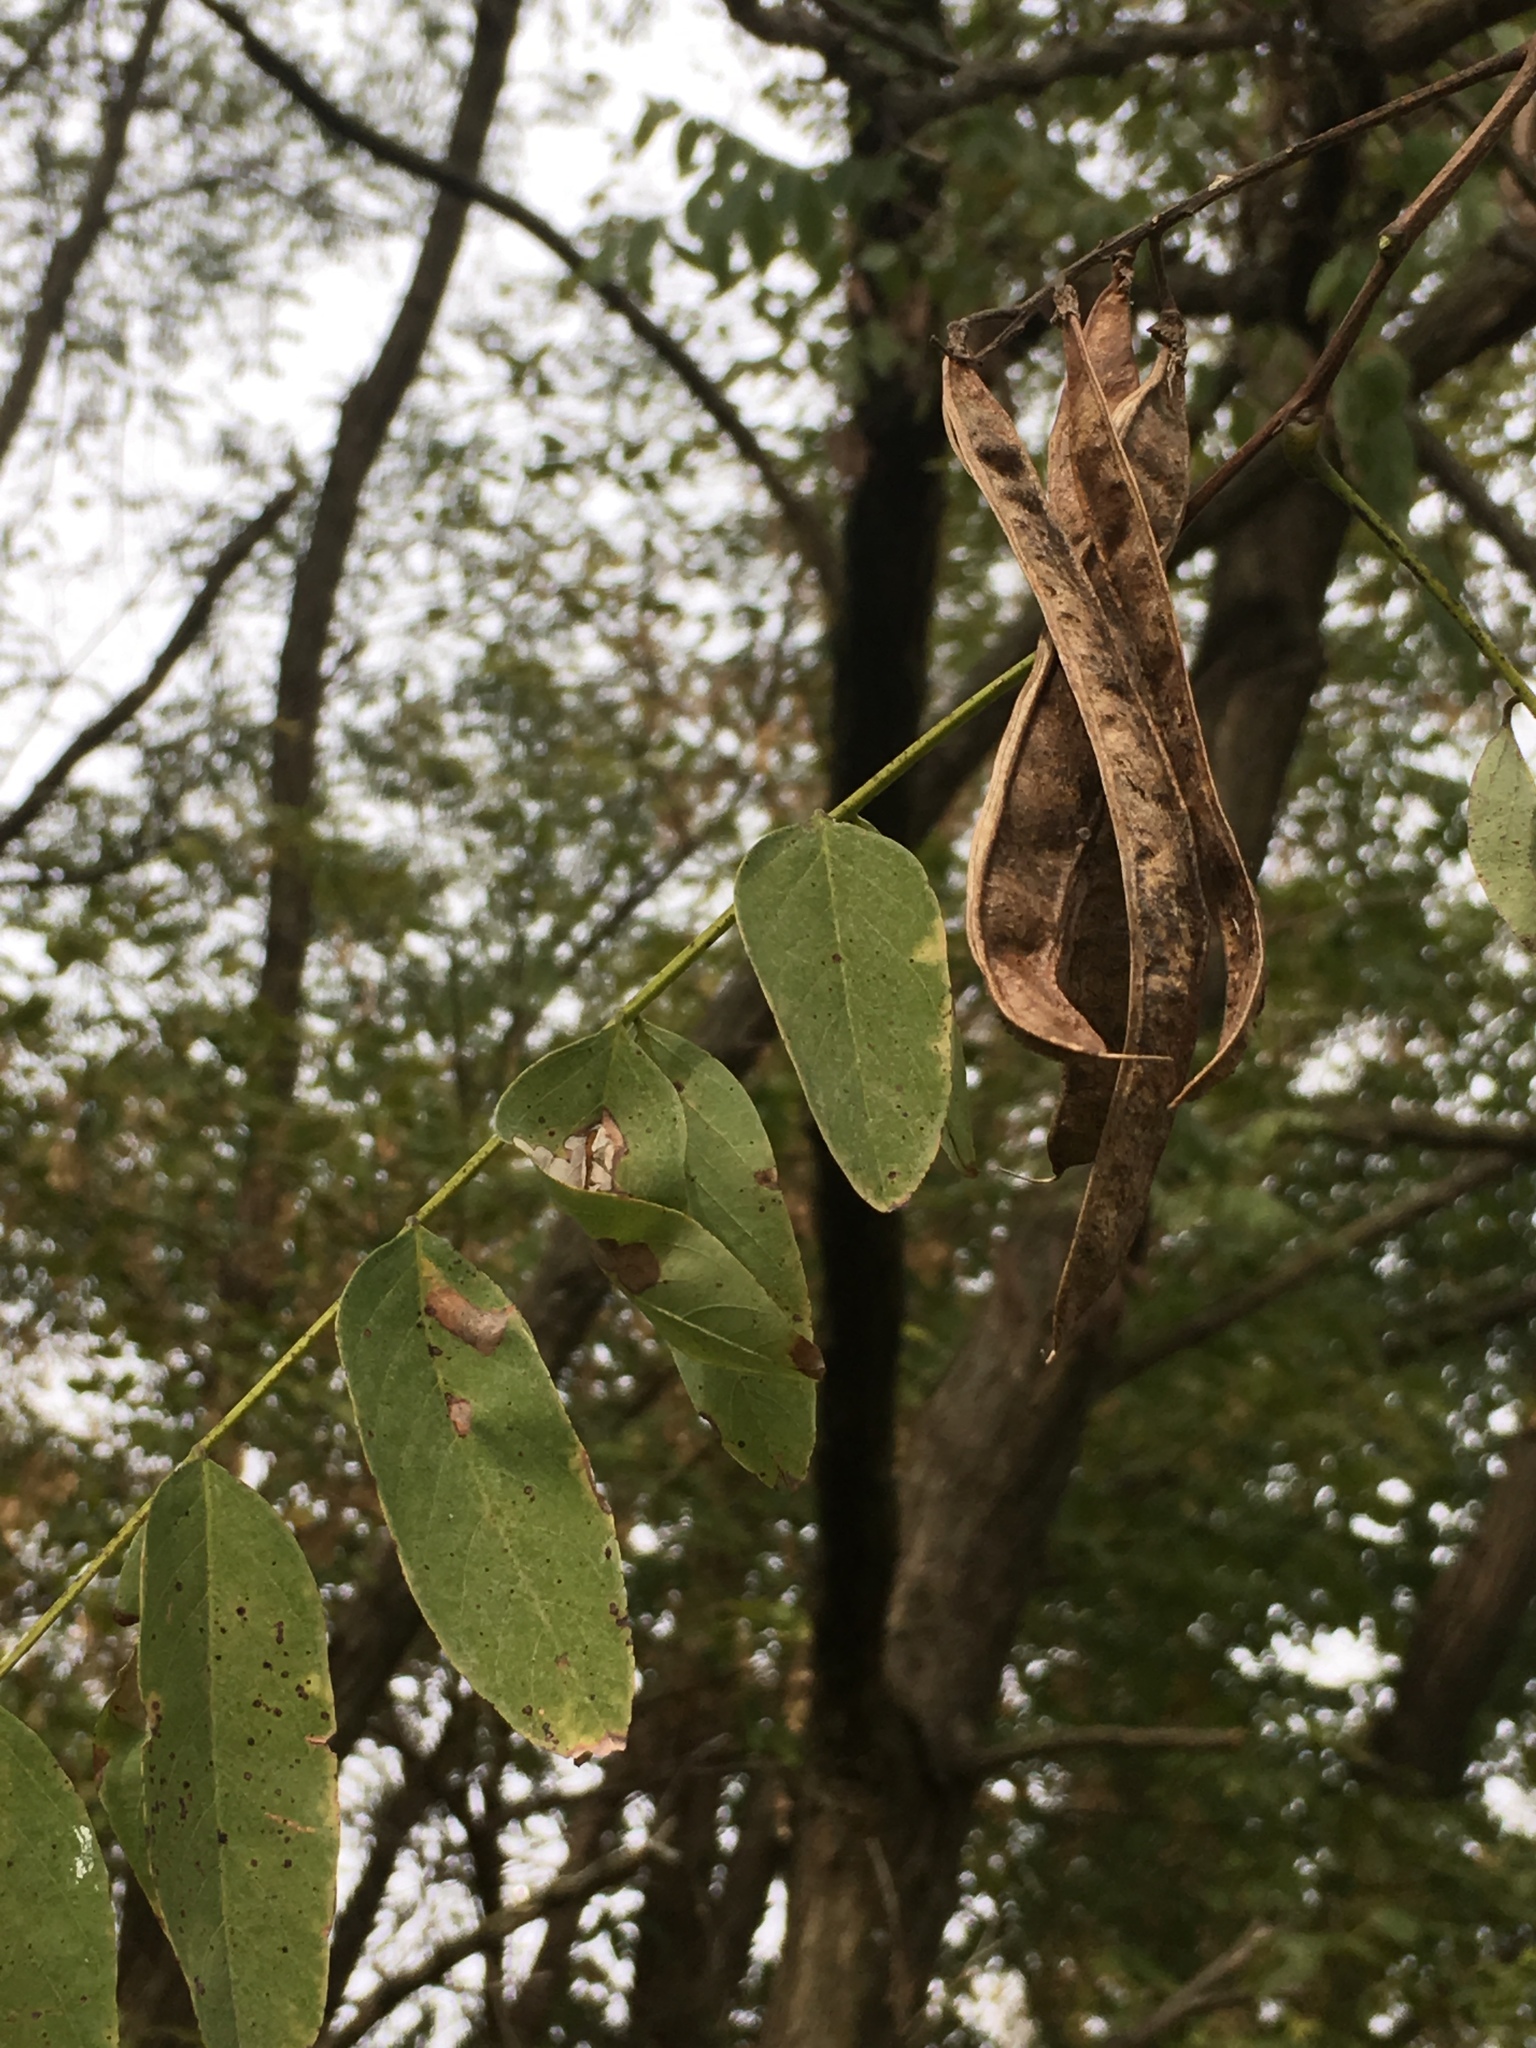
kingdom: Plantae
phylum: Tracheophyta
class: Magnoliopsida
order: Fabales
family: Fabaceae
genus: Robinia
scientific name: Robinia pseudoacacia
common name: Black locust
